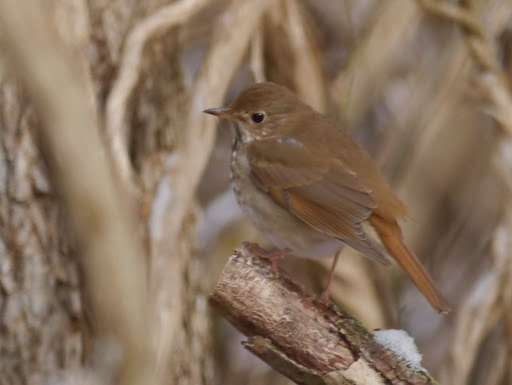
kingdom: Animalia
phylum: Chordata
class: Aves
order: Passeriformes
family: Turdidae
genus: Catharus
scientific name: Catharus guttatus
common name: Hermit thrush
